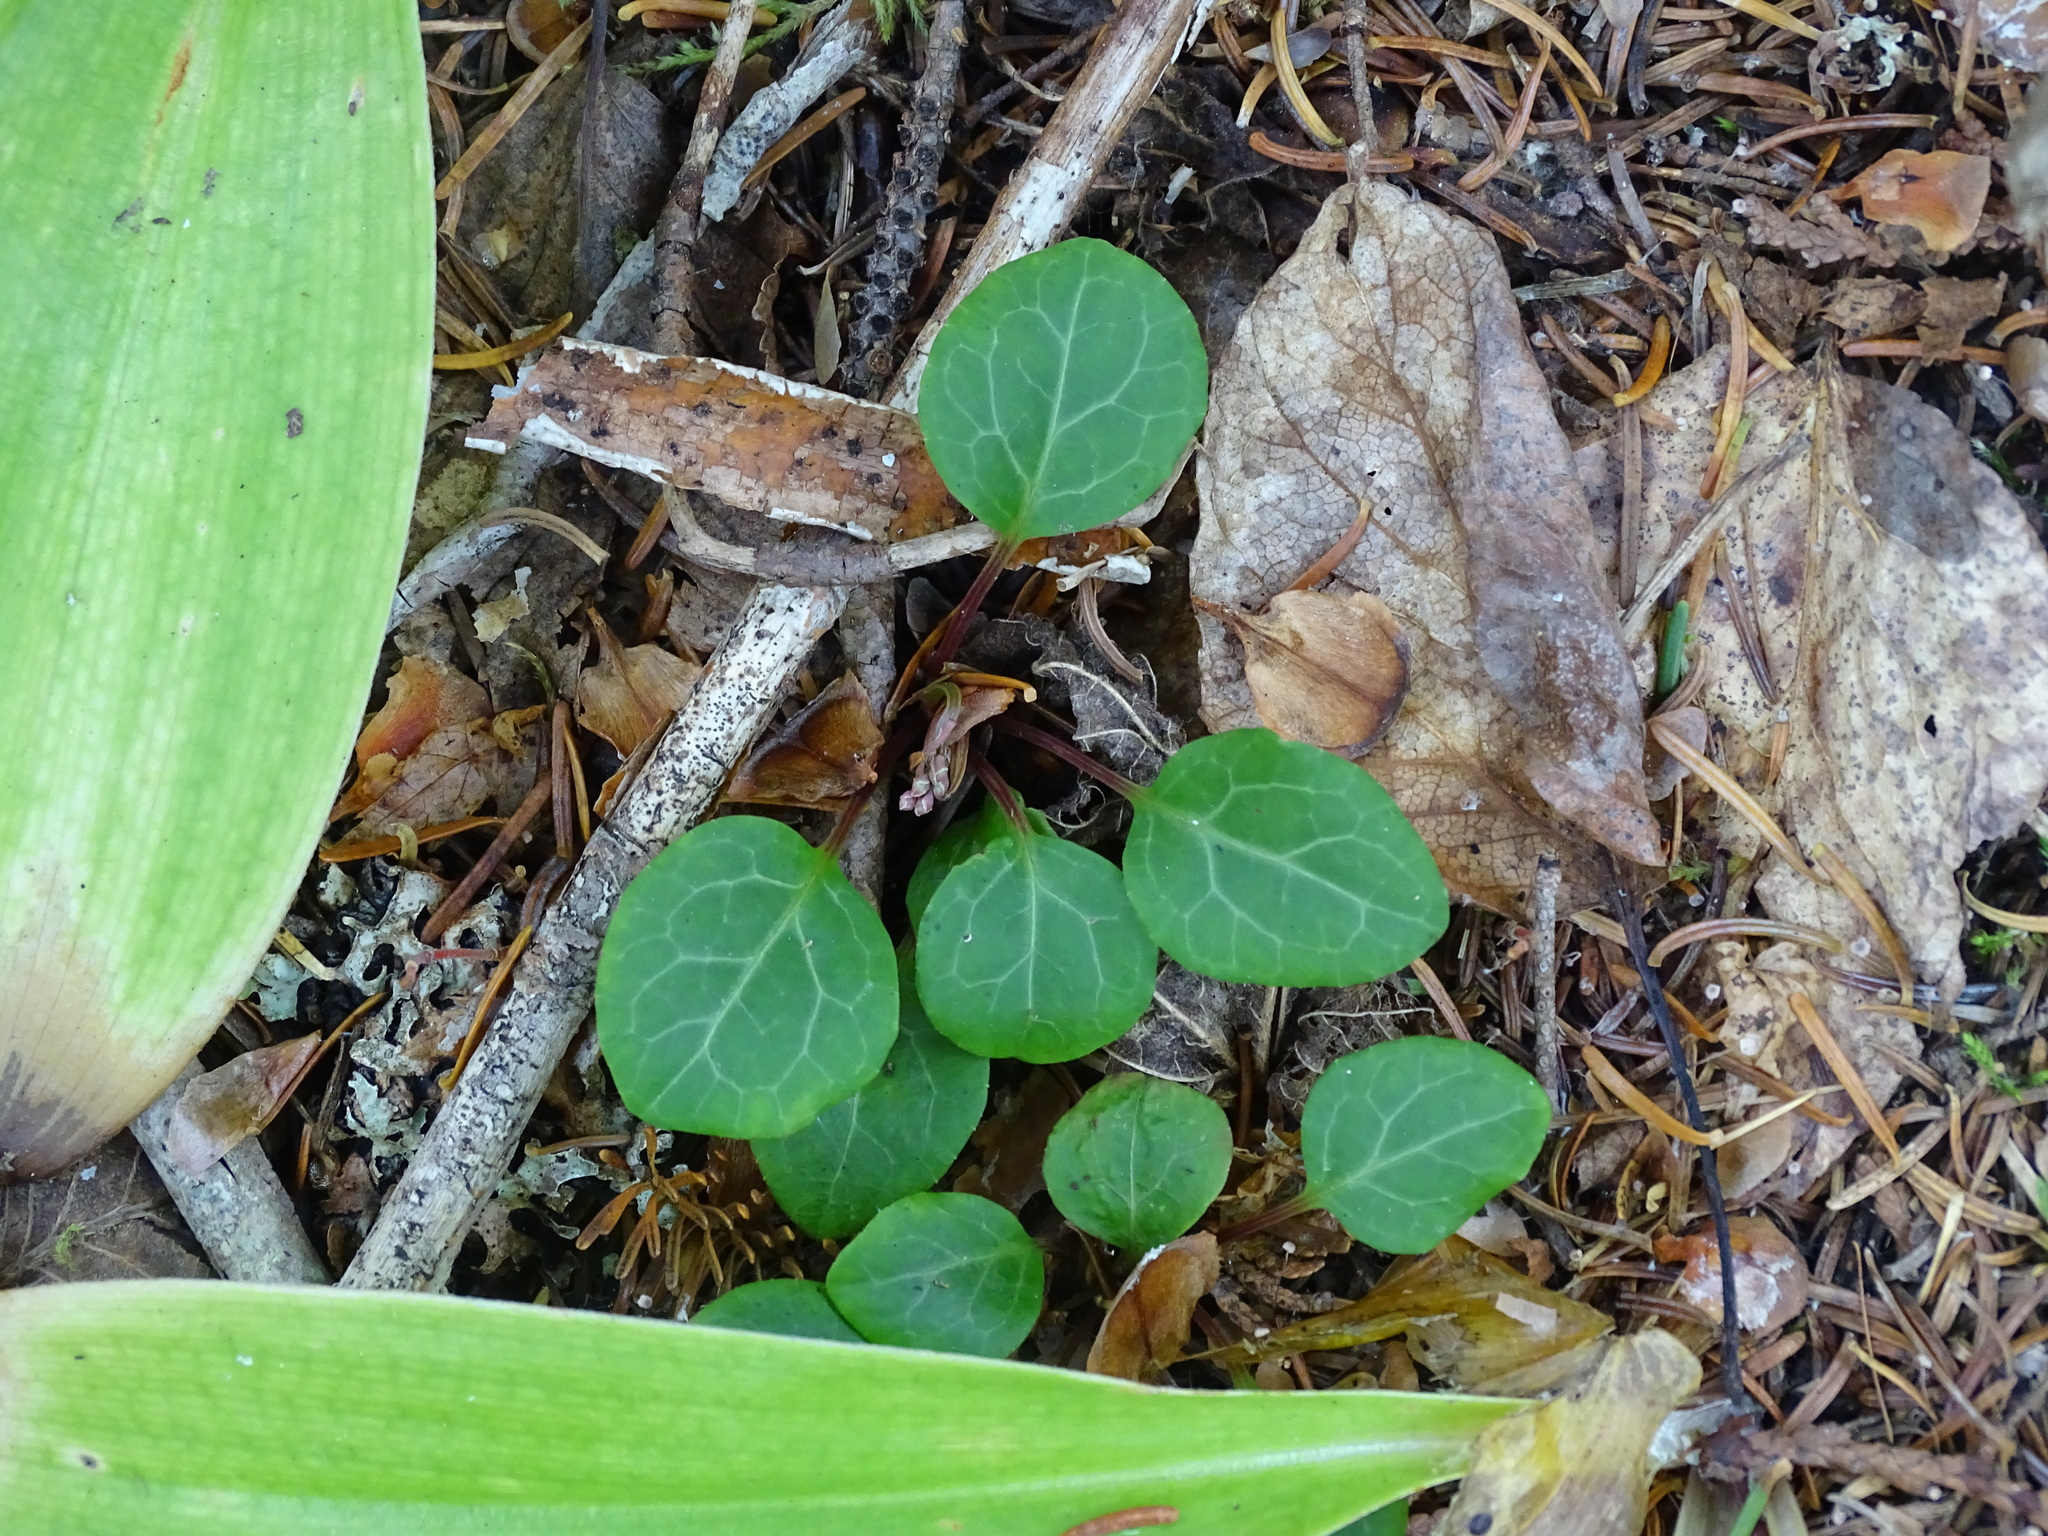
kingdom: Plantae
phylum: Tracheophyta
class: Magnoliopsida
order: Ericales
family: Ericaceae
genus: Pyrola
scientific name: Pyrola chlorantha
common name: Green wintergreen
